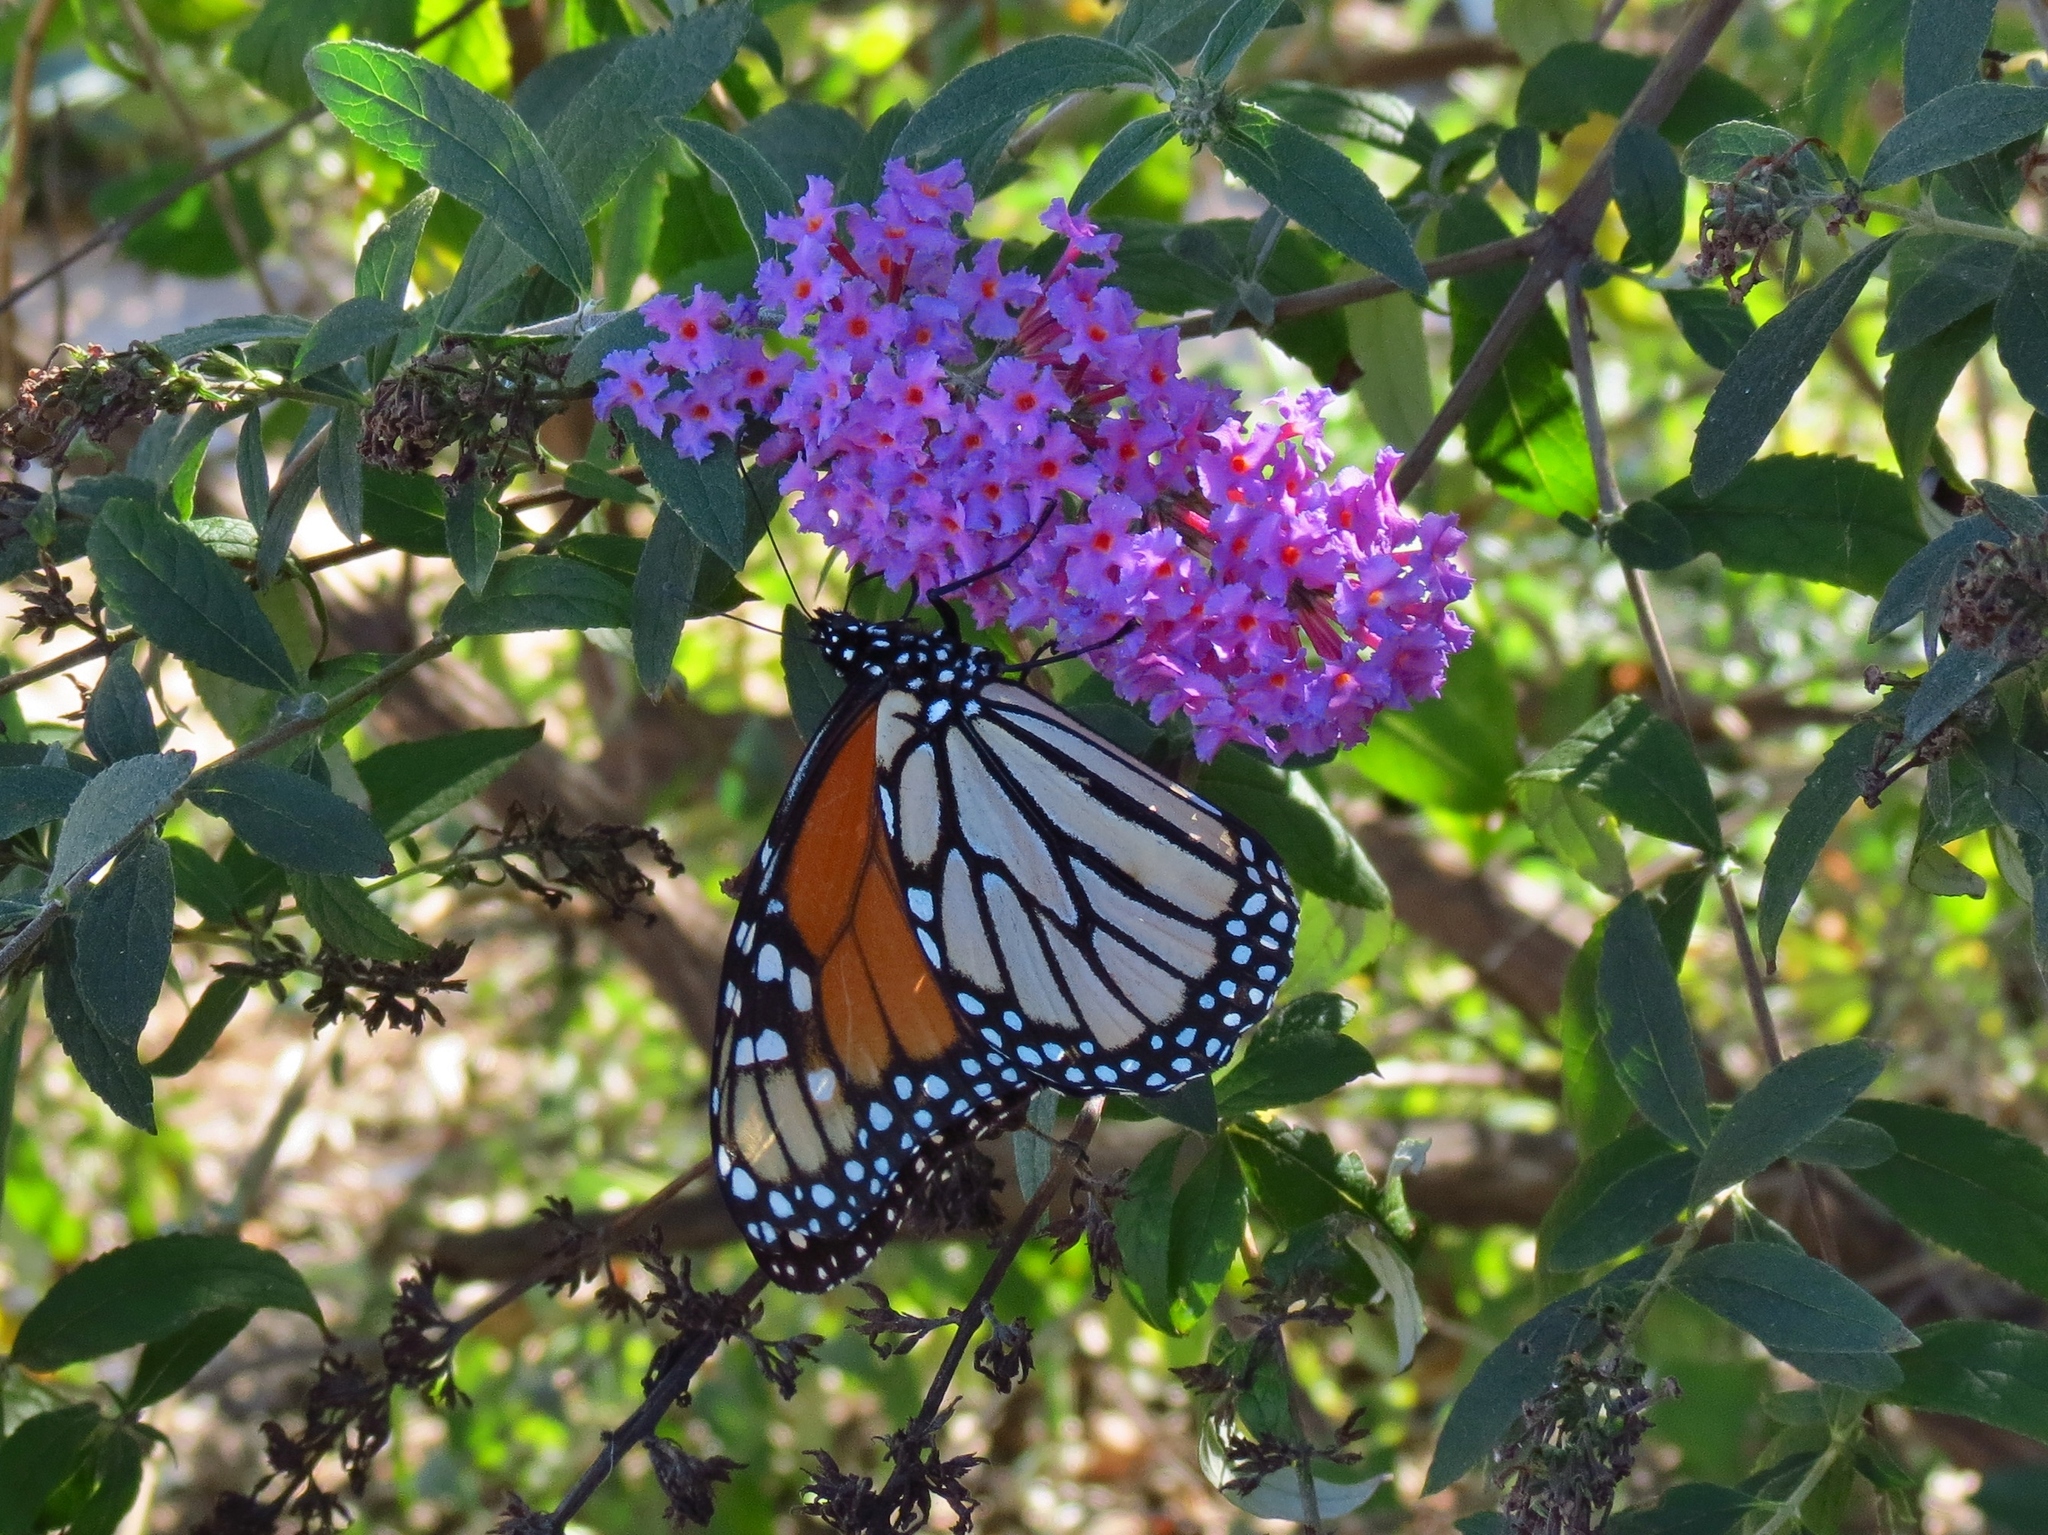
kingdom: Animalia
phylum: Arthropoda
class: Insecta
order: Lepidoptera
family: Nymphalidae
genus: Danaus
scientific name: Danaus plexippus
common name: Monarch
